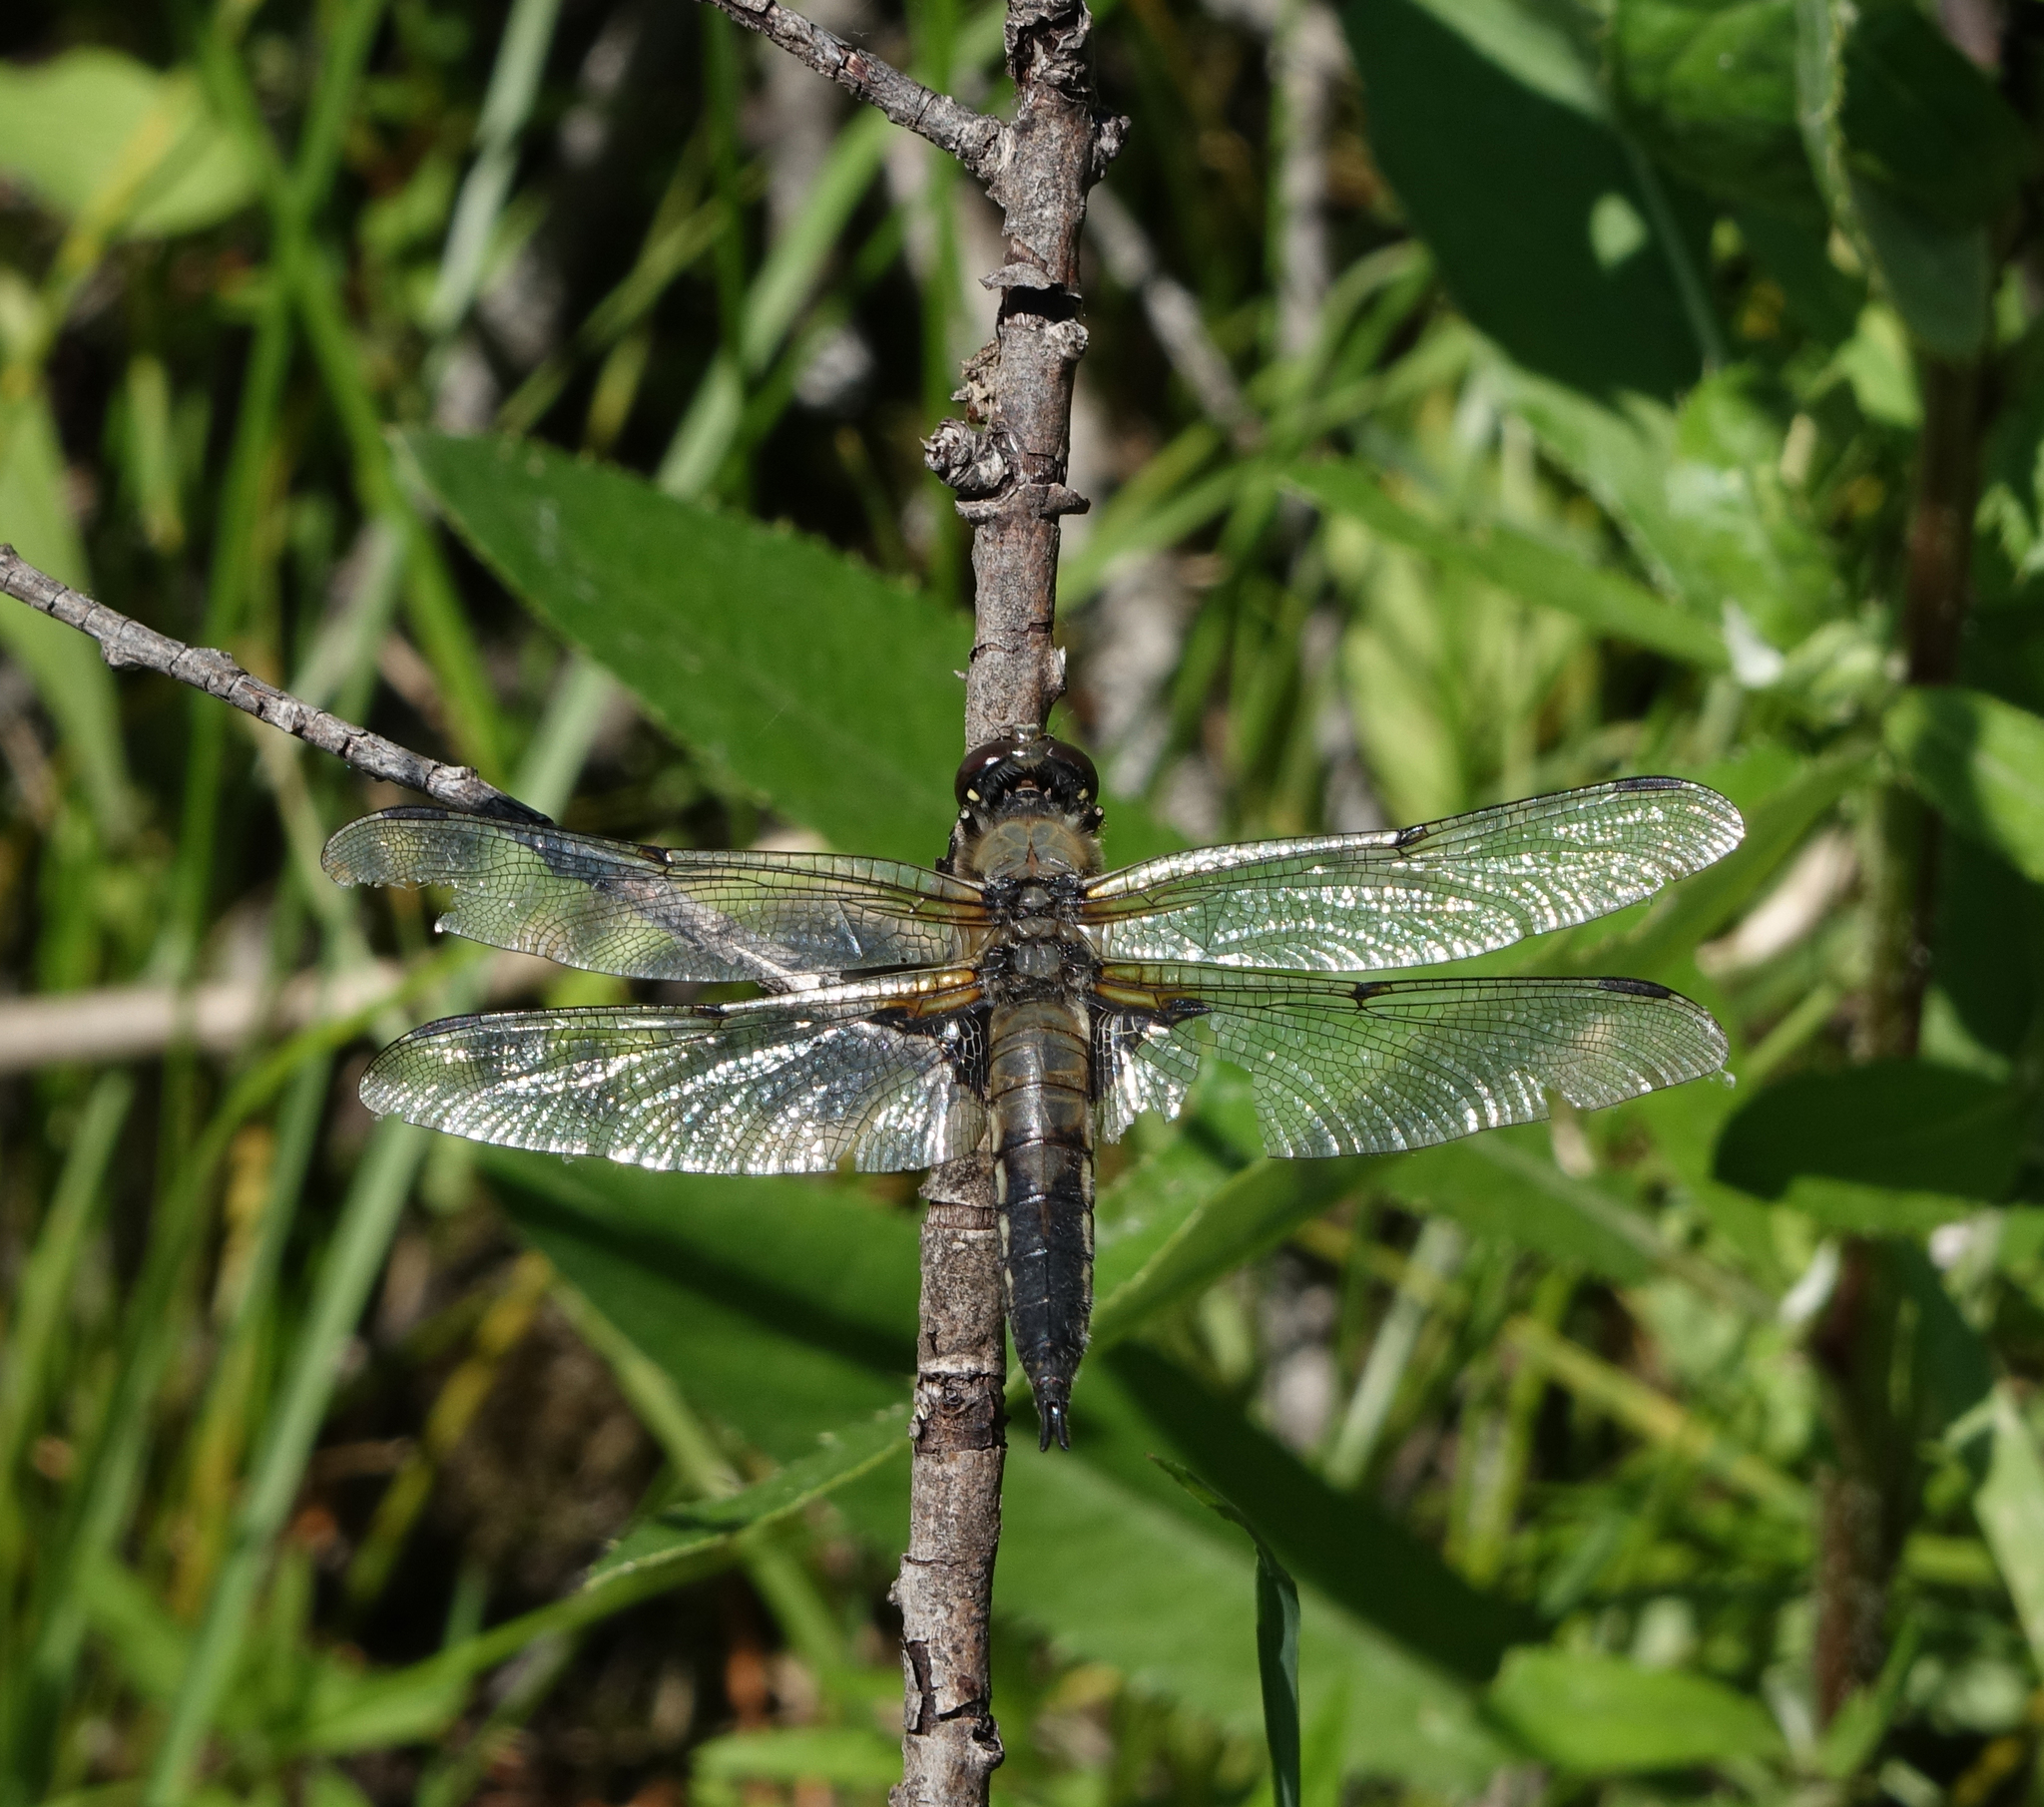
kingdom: Animalia
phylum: Arthropoda
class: Insecta
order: Odonata
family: Libellulidae
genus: Libellula
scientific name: Libellula quadrimaculata
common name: Four-spotted chaser
